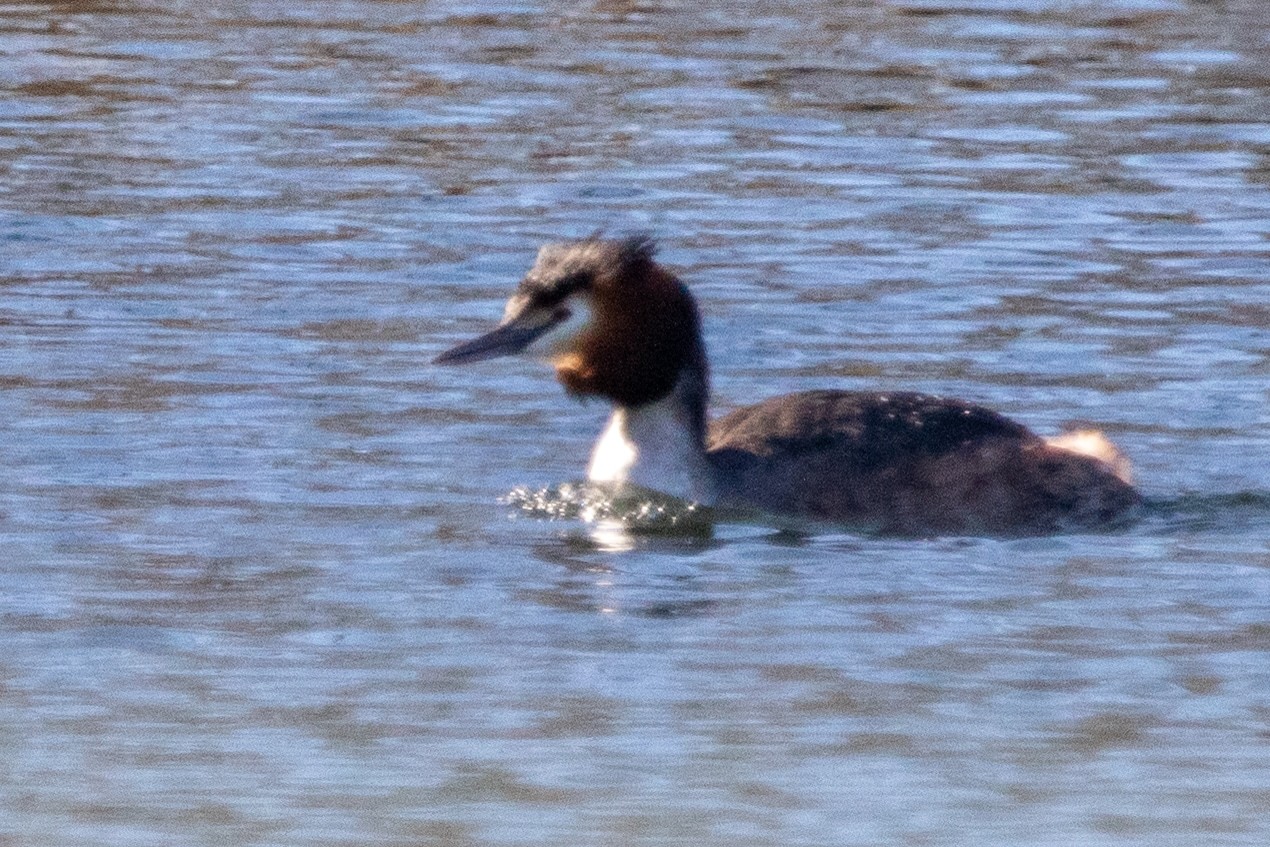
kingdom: Animalia
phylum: Chordata
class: Aves
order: Podicipediformes
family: Podicipedidae
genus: Podiceps
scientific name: Podiceps cristatus
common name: Great crested grebe
